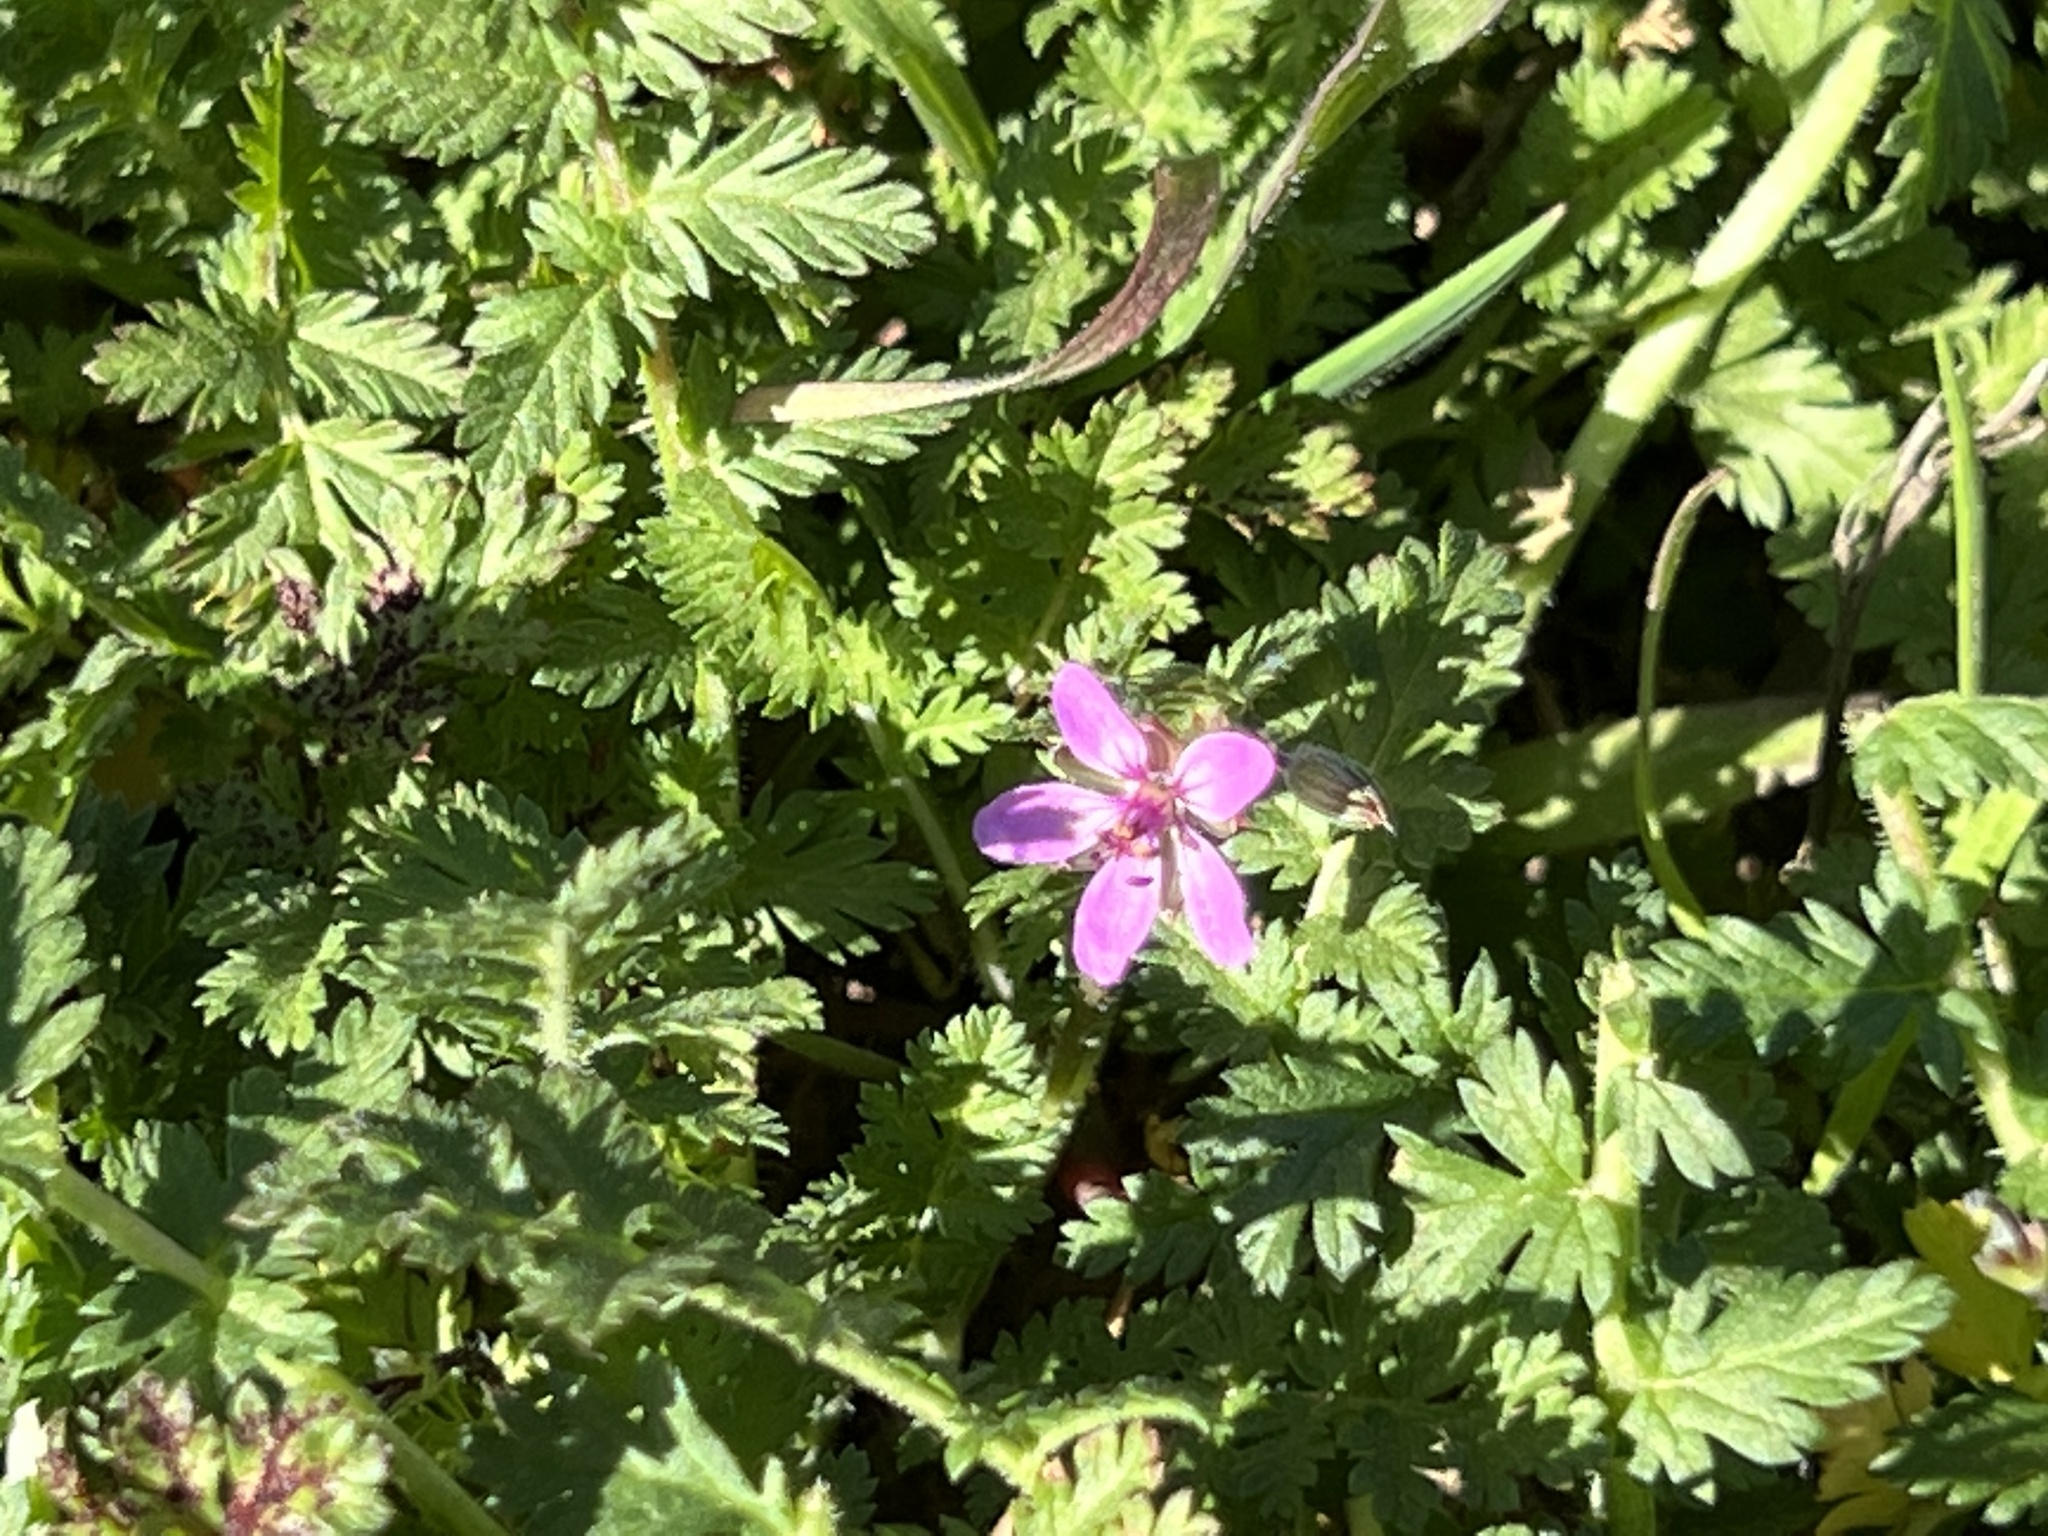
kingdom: Plantae
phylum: Tracheophyta
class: Magnoliopsida
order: Geraniales
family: Geraniaceae
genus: Erodium
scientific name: Erodium cicutarium
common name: Common stork's-bill
